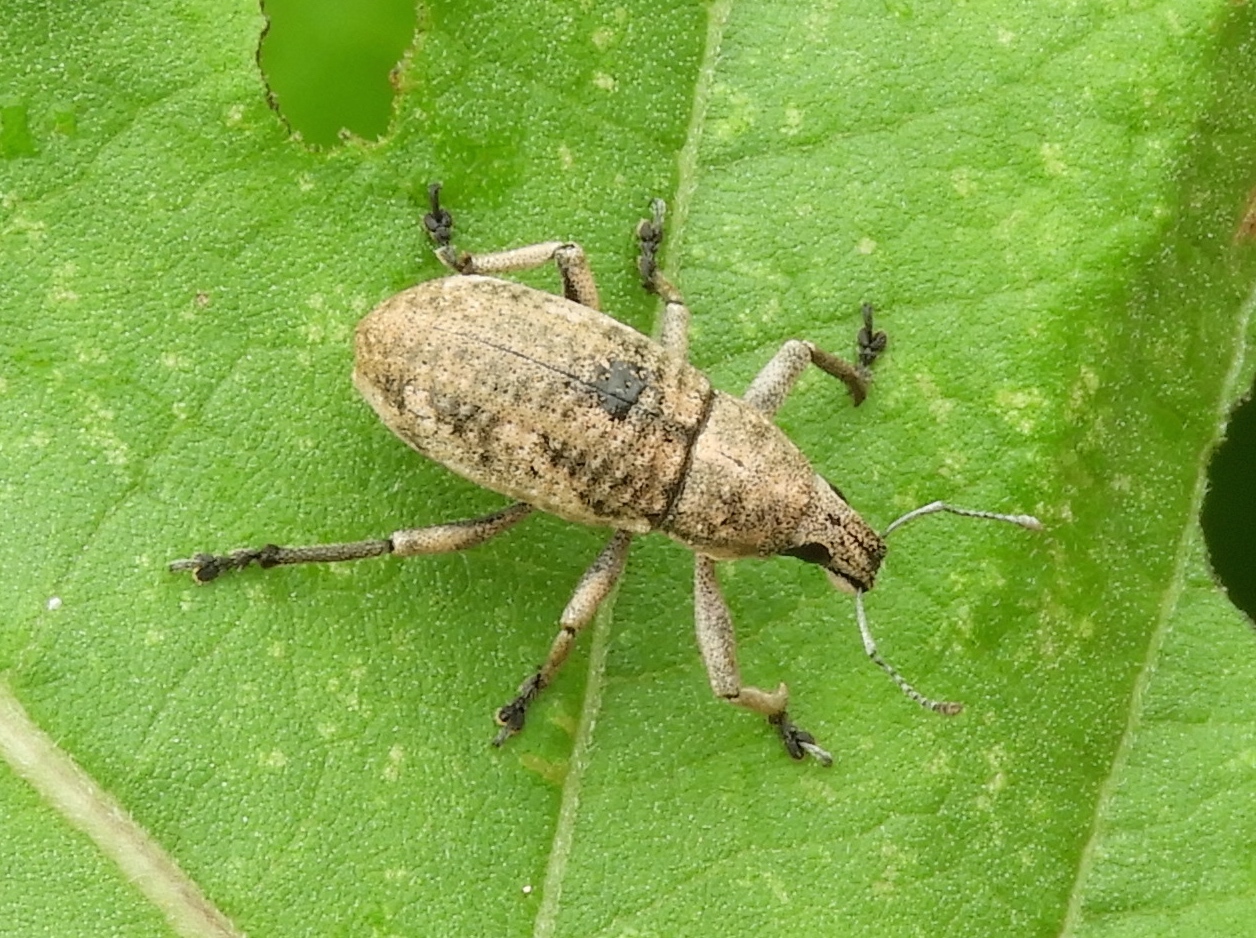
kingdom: Animalia
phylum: Arthropoda
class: Insecta
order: Coleoptera
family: Curculionidae
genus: Epicaerus
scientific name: Epicaerus
